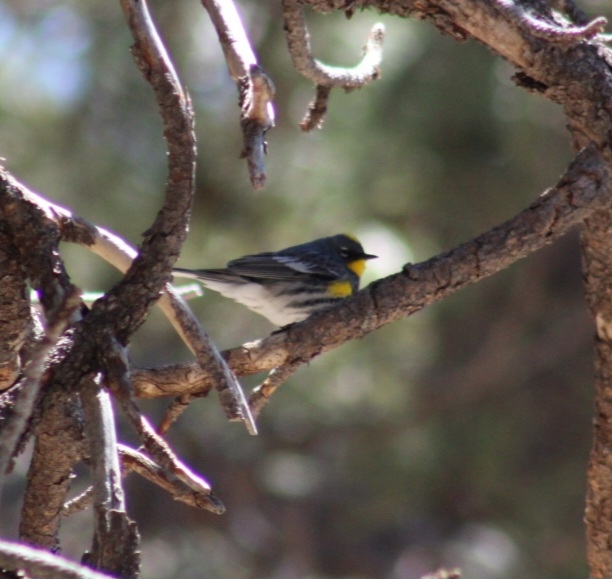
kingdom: Animalia
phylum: Chordata
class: Aves
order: Passeriformes
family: Parulidae
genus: Setophaga
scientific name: Setophaga auduboni
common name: Audubon's warbler
